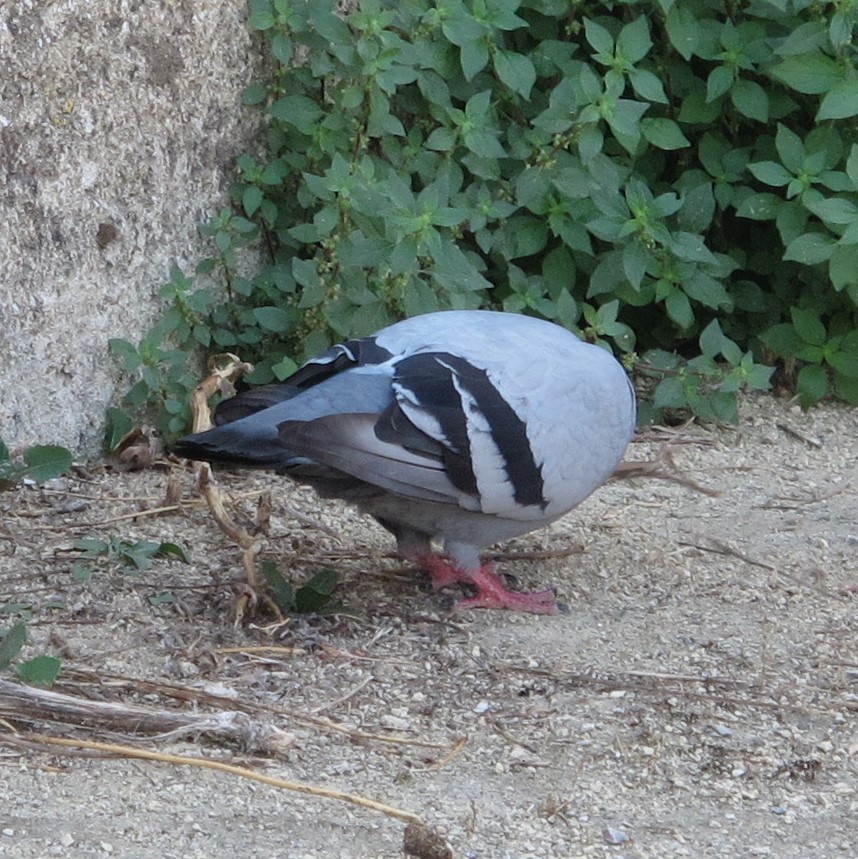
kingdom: Animalia
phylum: Chordata
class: Aves
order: Columbiformes
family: Columbidae
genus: Columba
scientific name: Columba livia
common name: Rock pigeon
